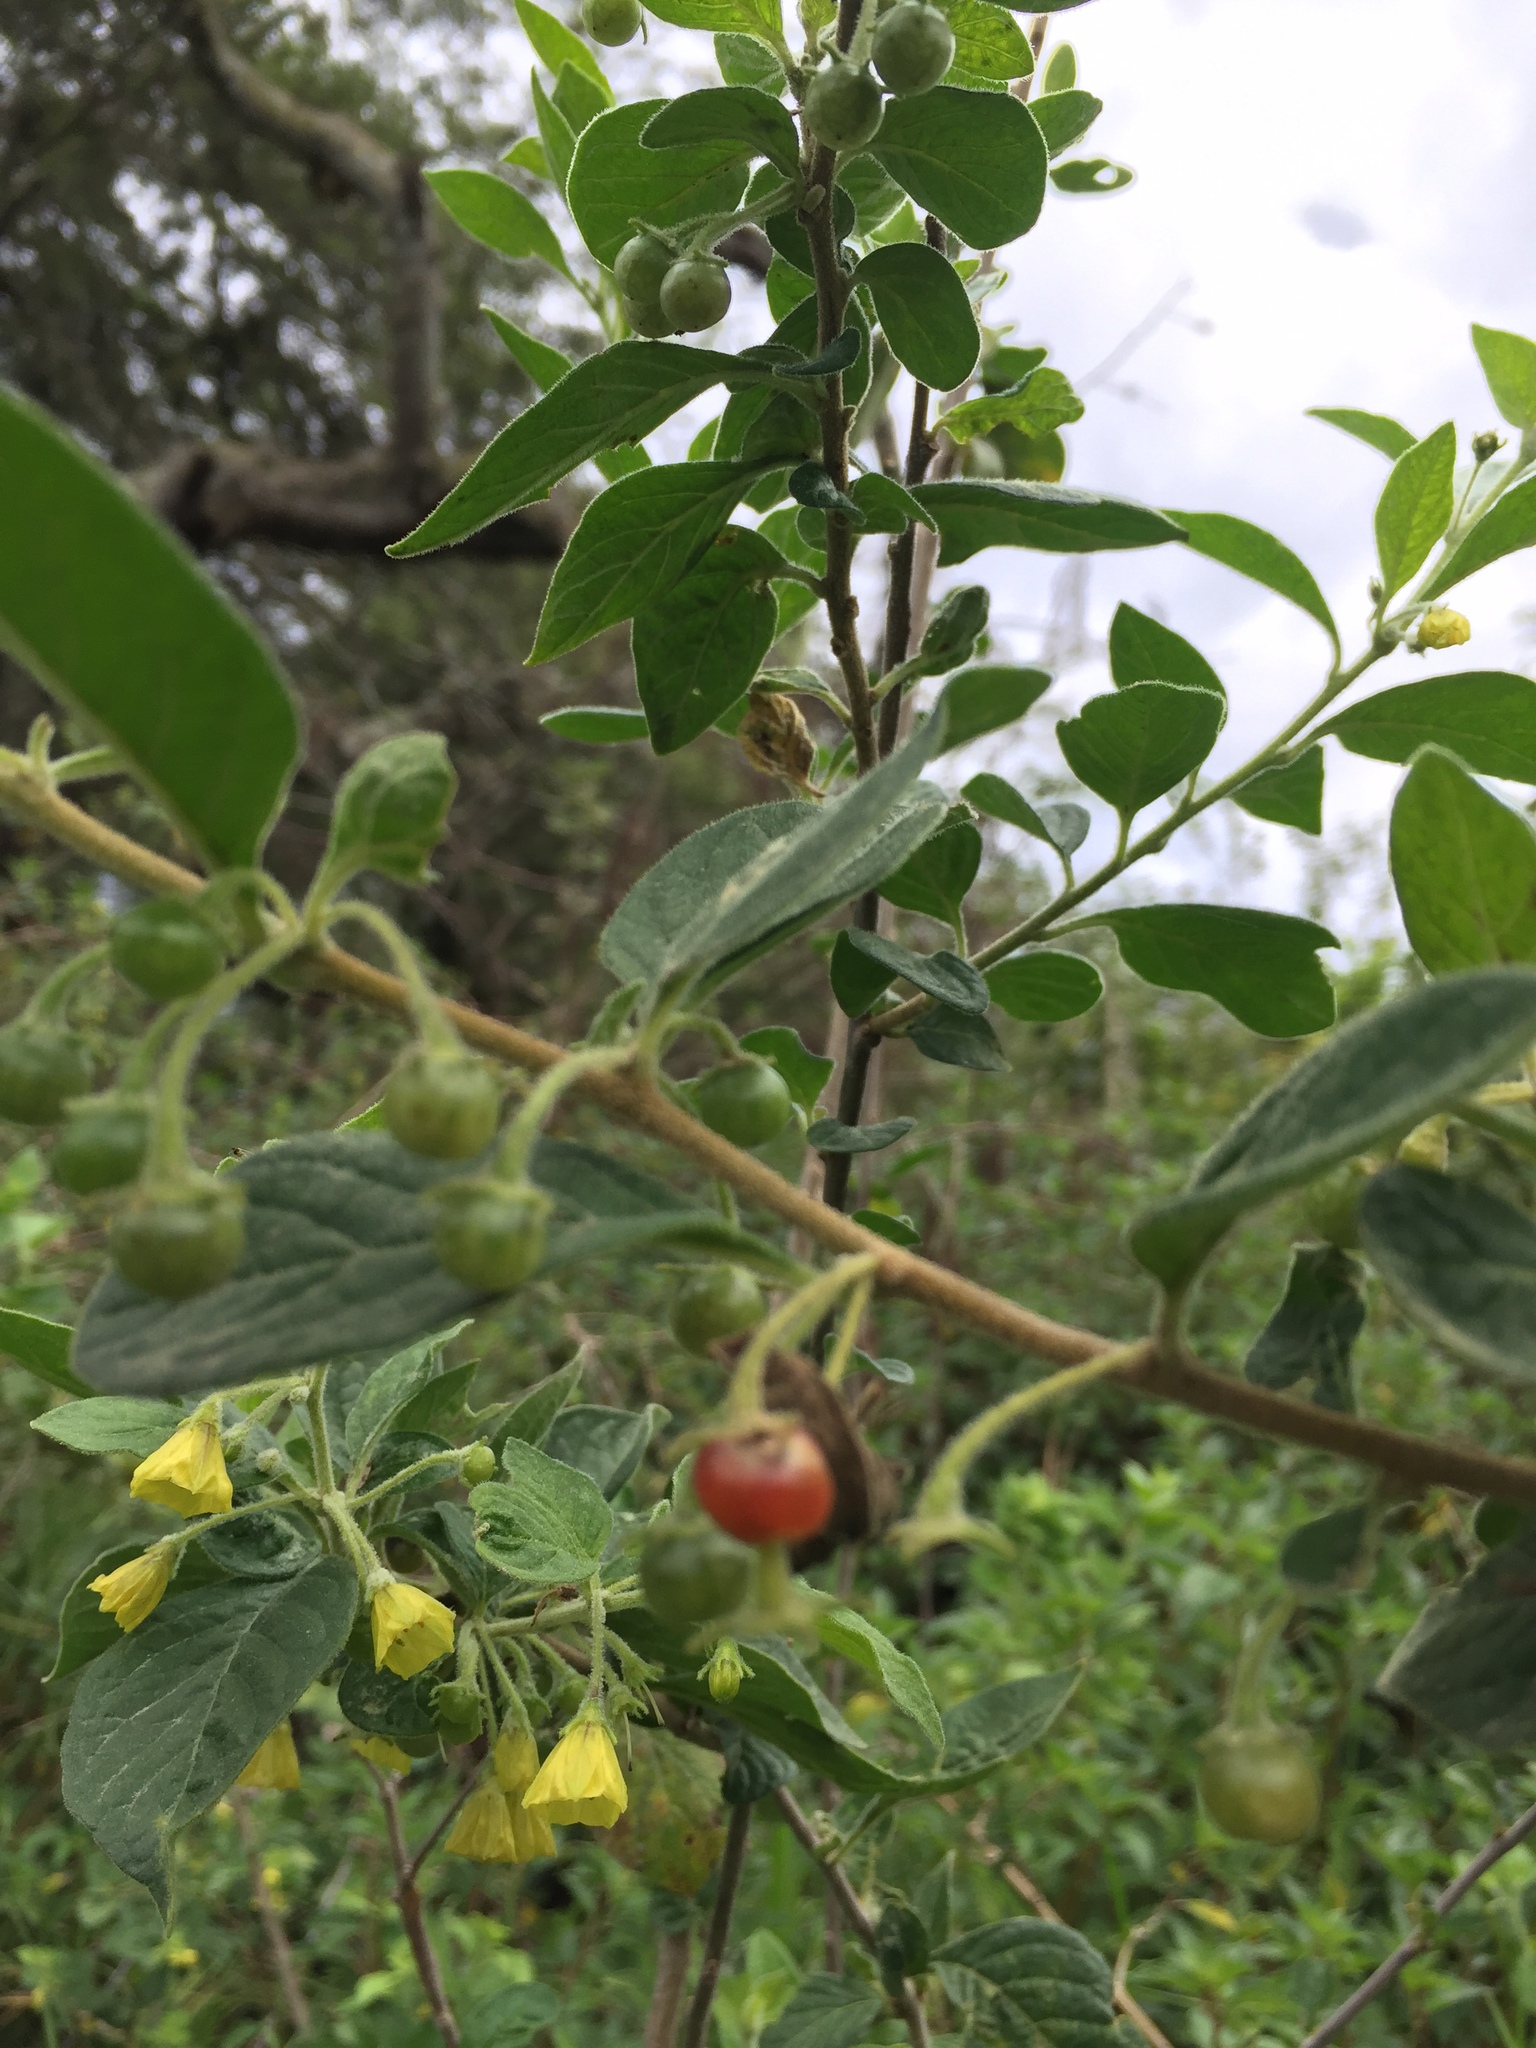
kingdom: Plantae
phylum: Tracheophyta
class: Magnoliopsida
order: Solanales
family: Solanaceae
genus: Capsicum
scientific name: Capsicum rhomboideum
